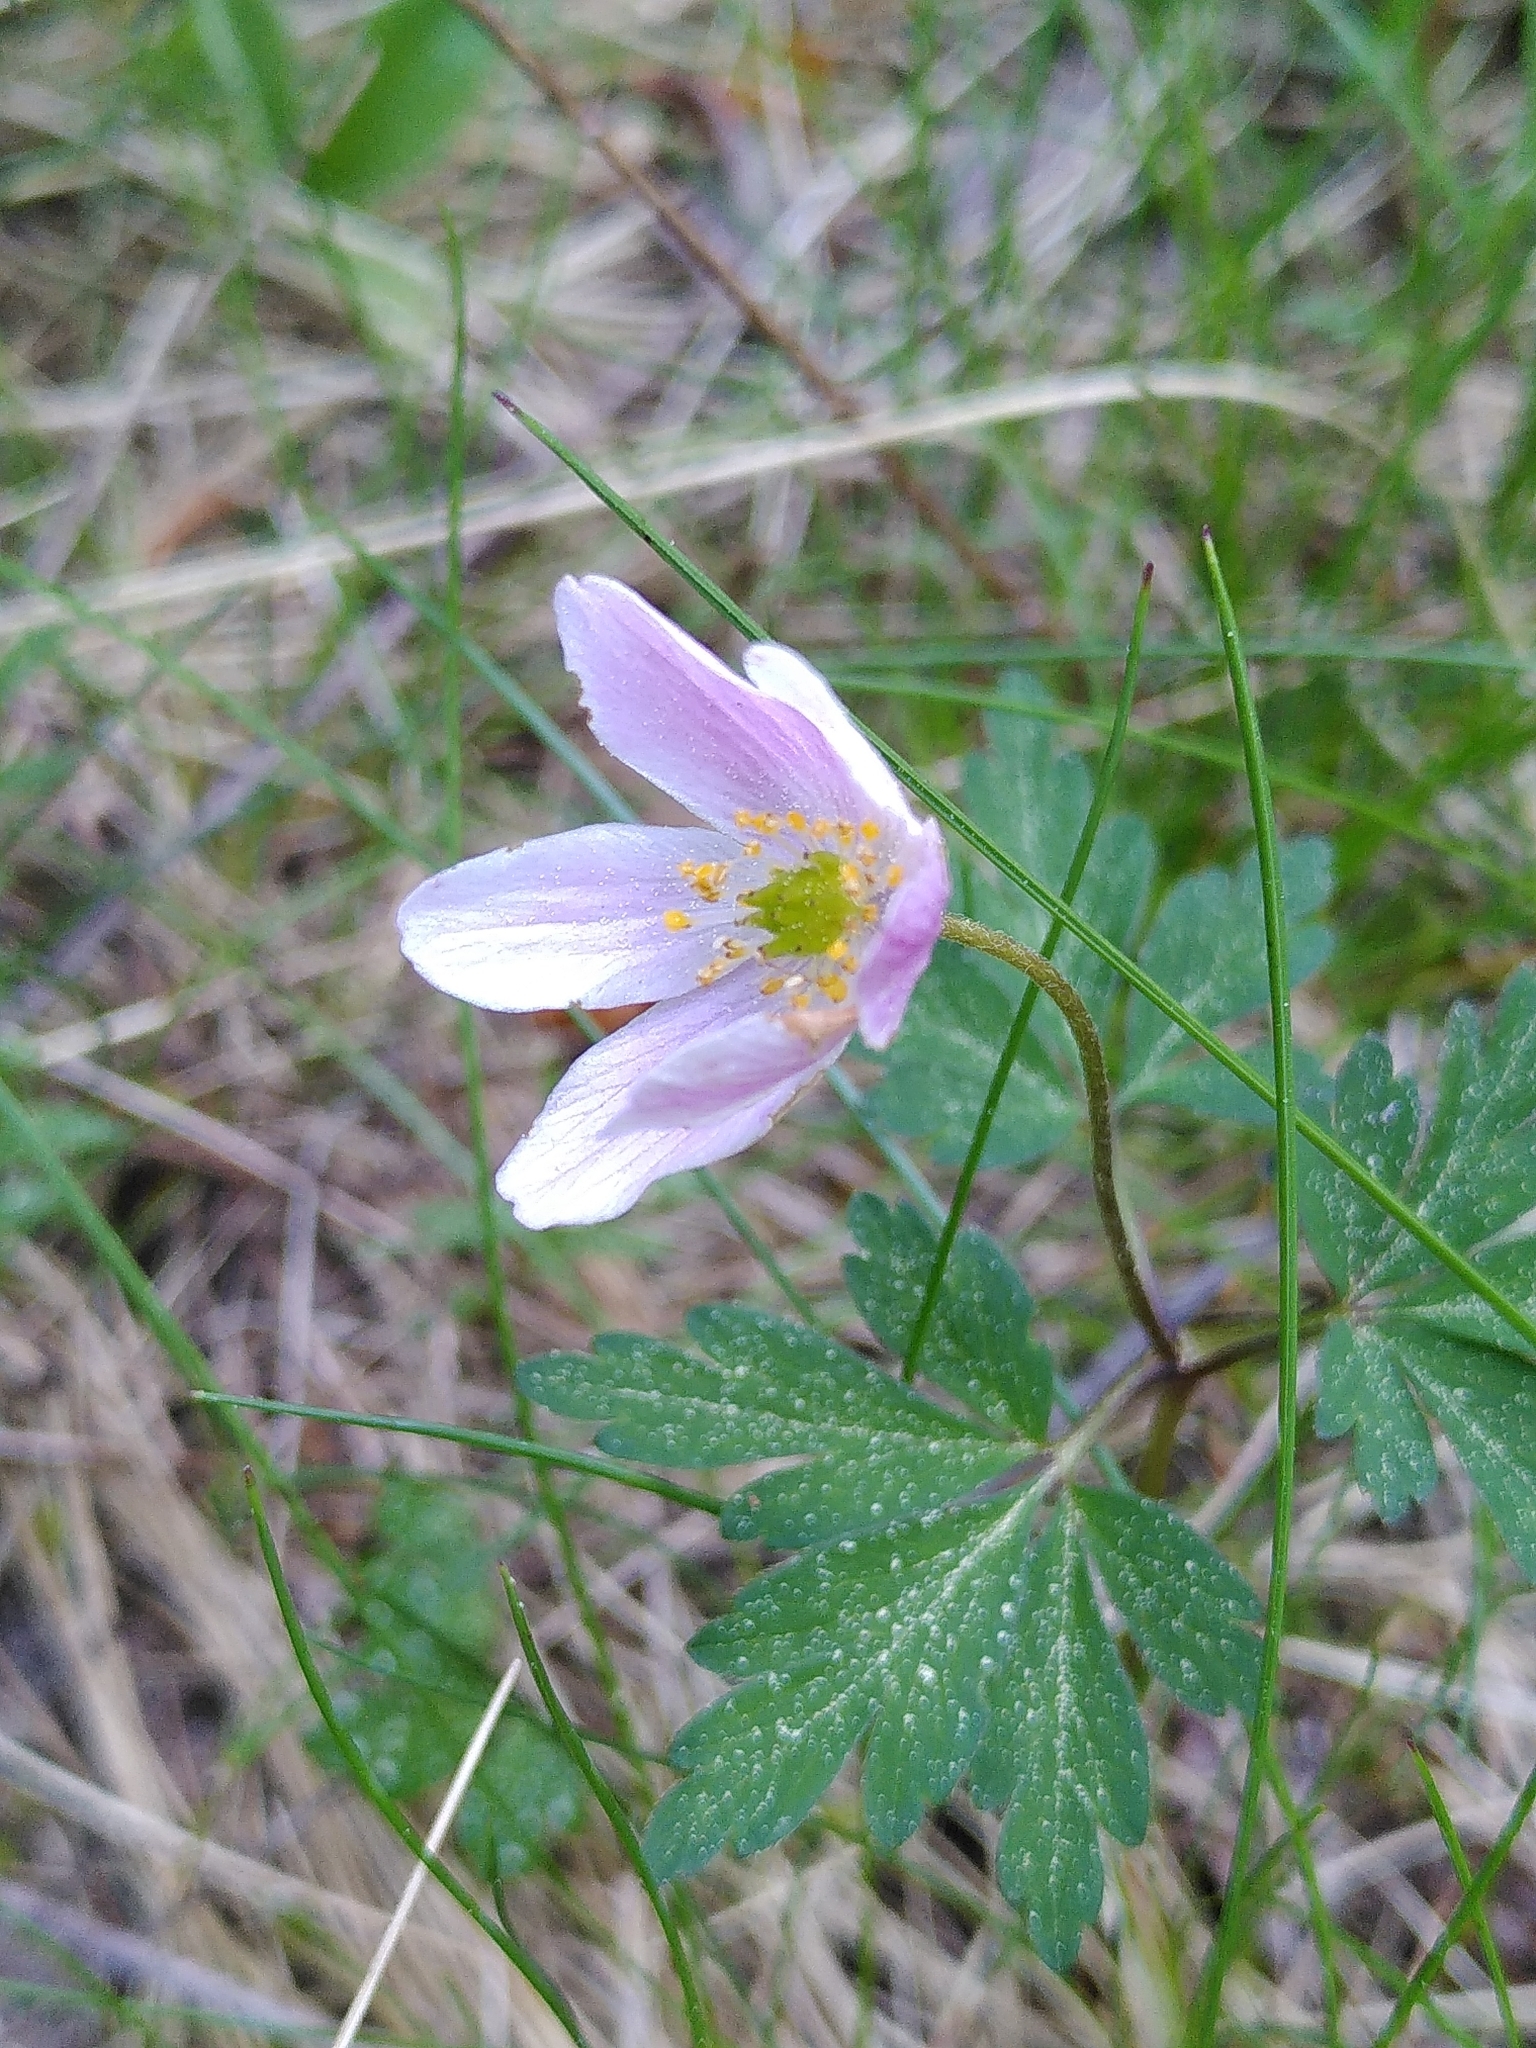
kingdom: Plantae
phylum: Tracheophyta
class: Magnoliopsida
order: Ranunculales
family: Ranunculaceae
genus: Anemone
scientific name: Anemone nemorosa
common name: Wood anemone
